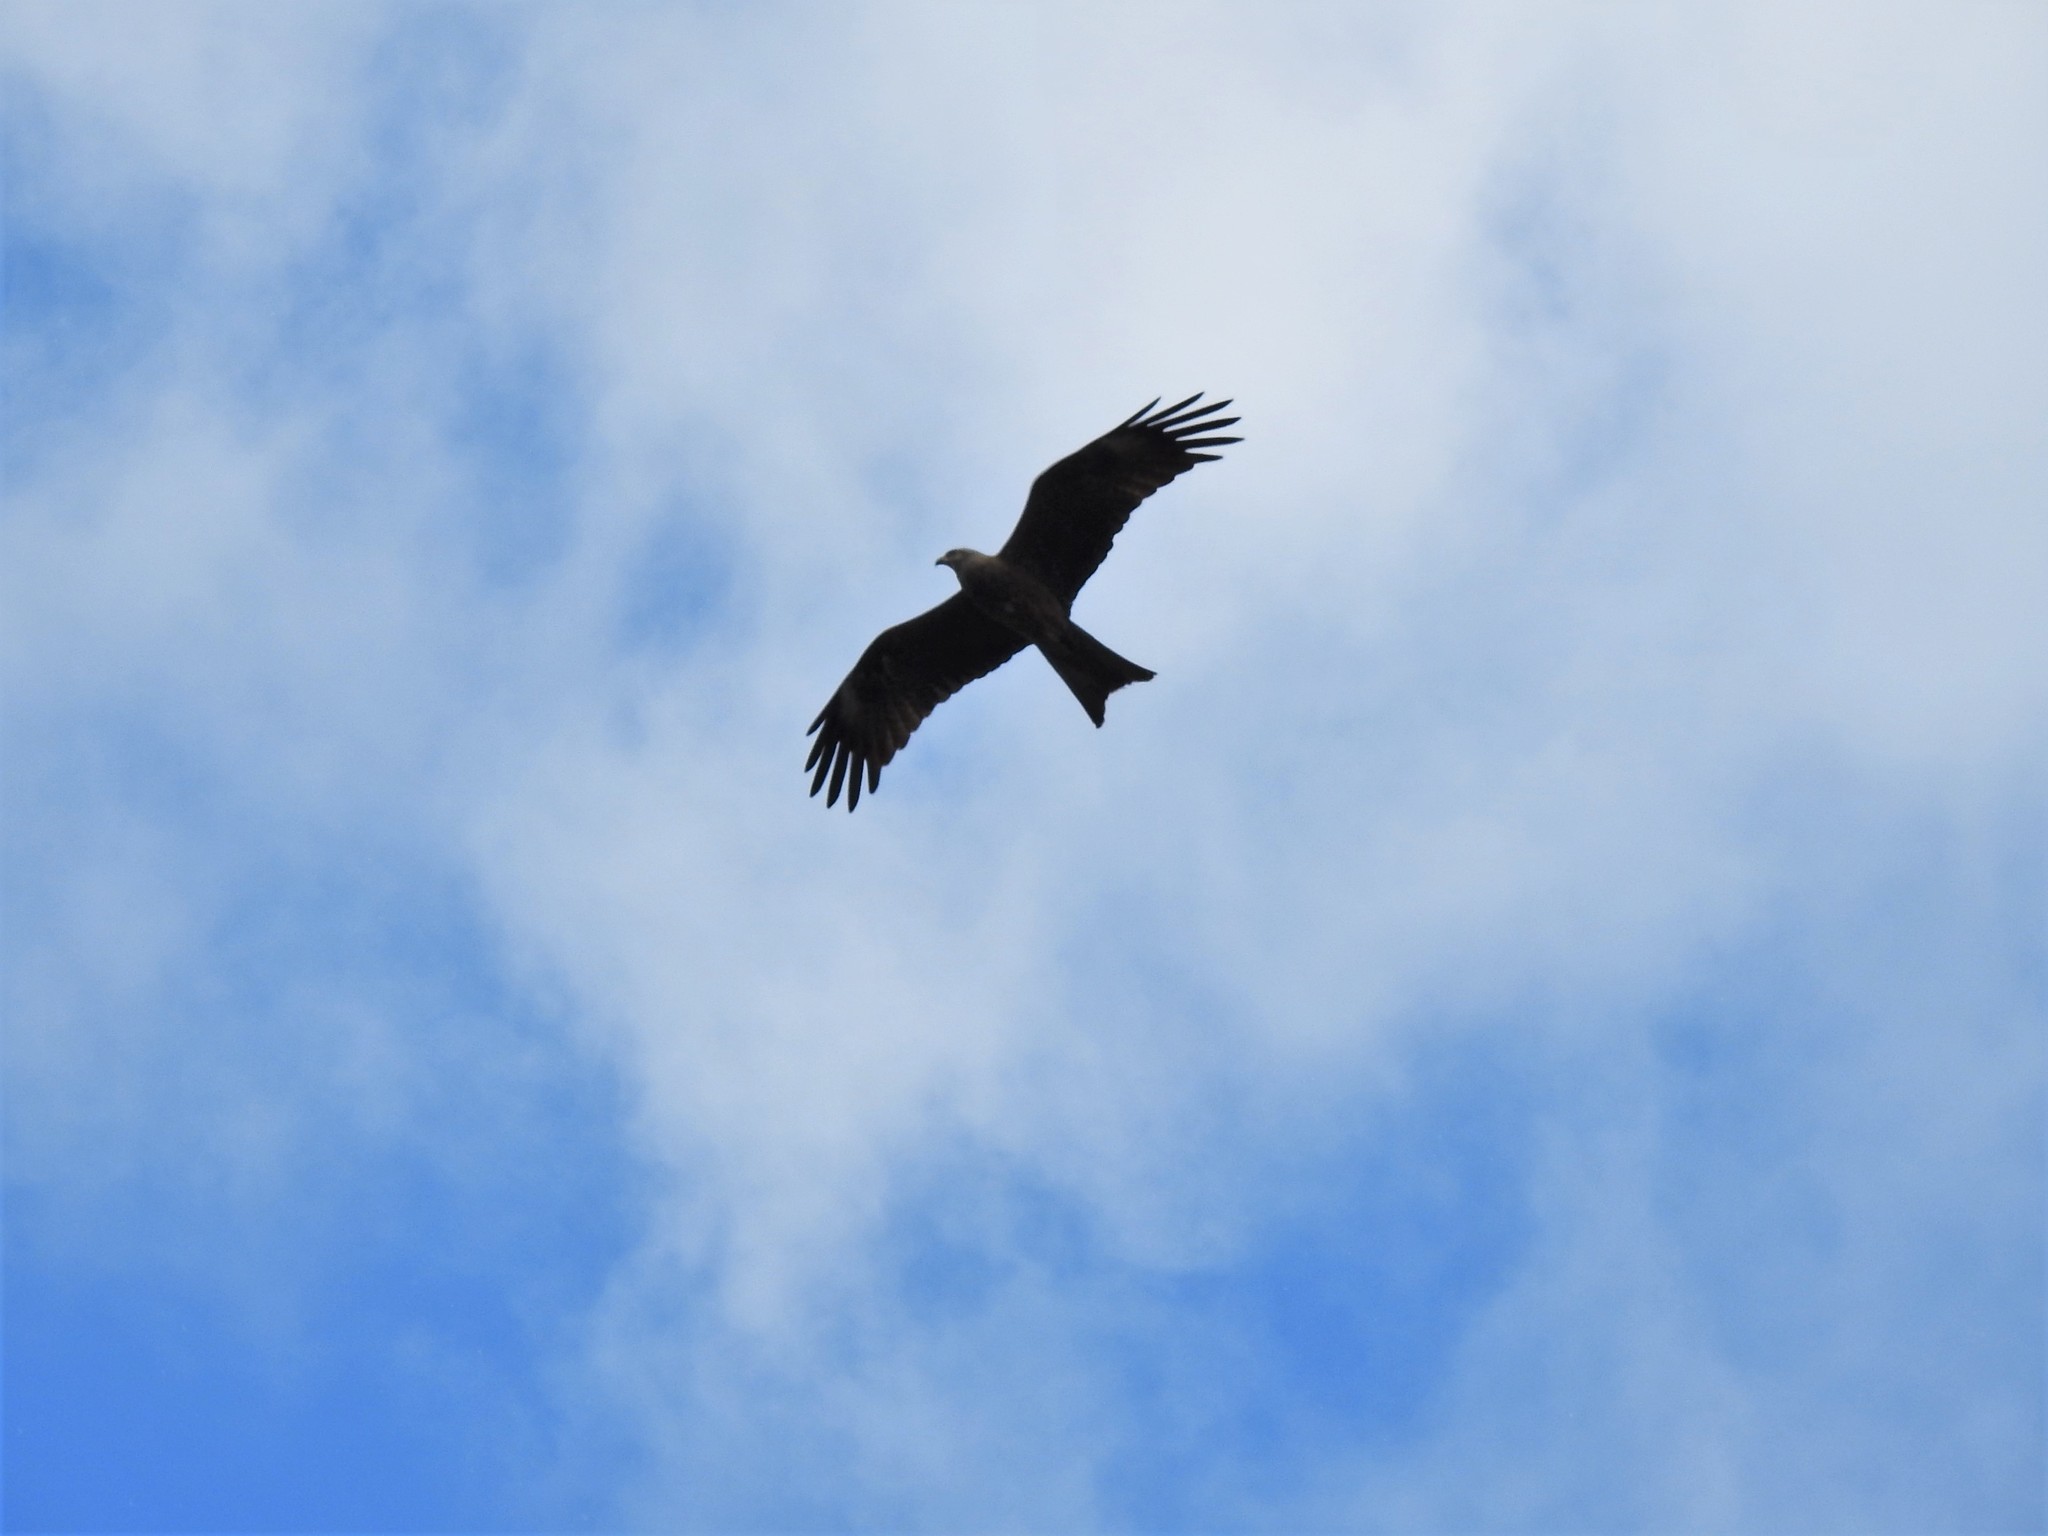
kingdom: Animalia
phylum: Chordata
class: Aves
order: Accipitriformes
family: Accipitridae
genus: Milvus
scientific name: Milvus migrans
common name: Black kite
